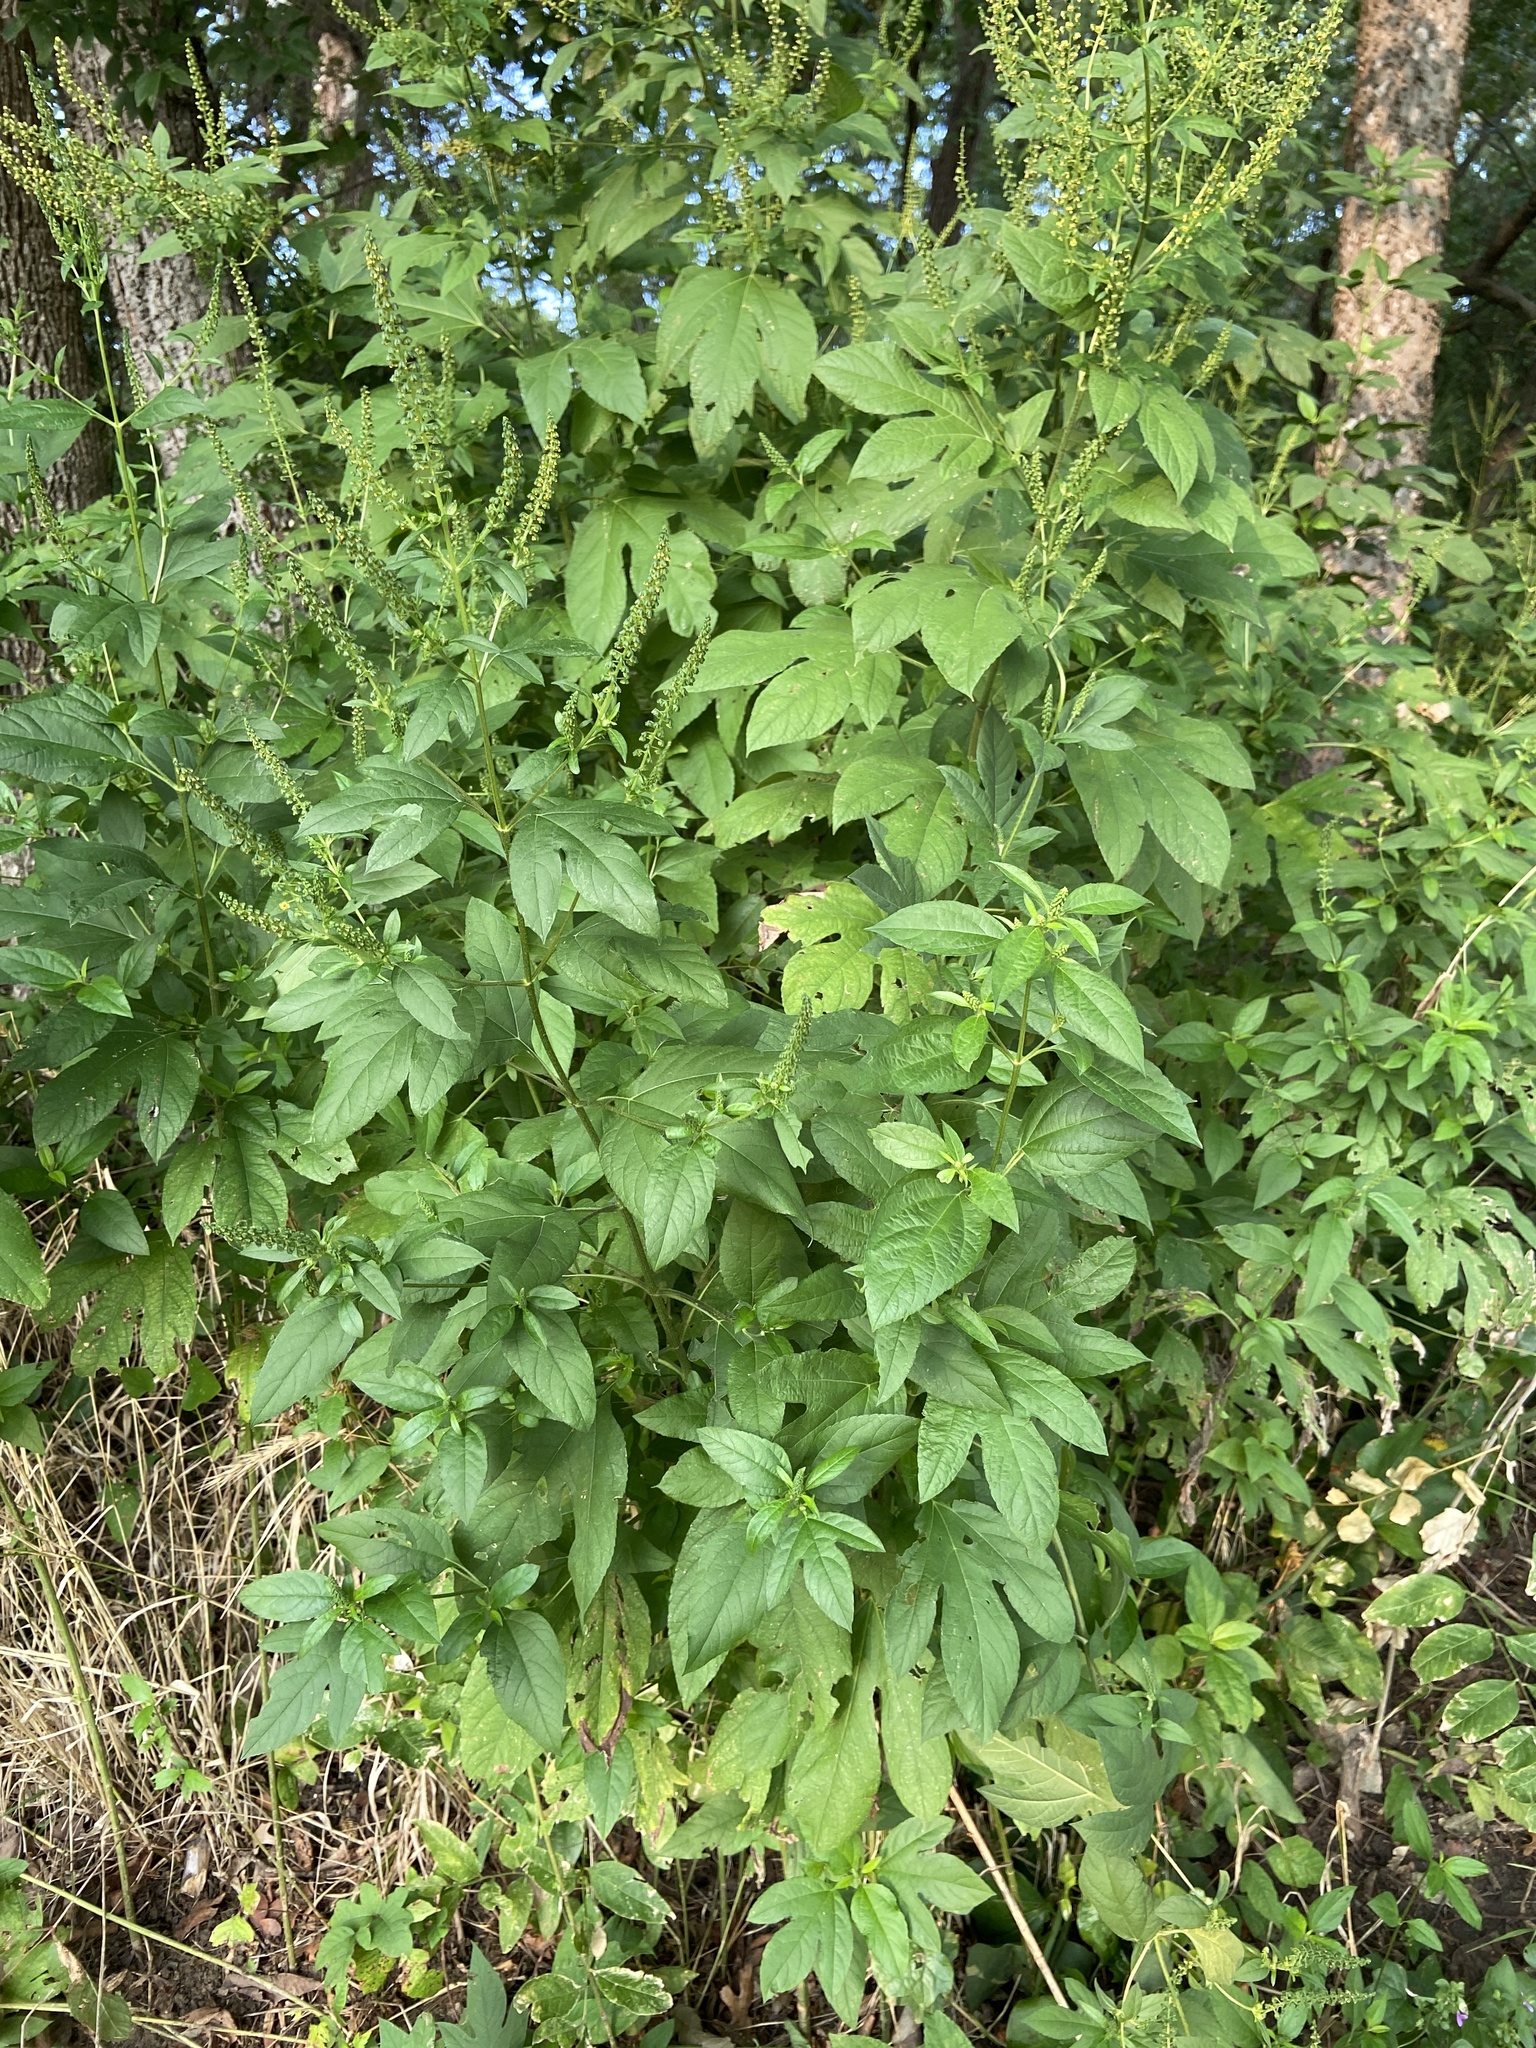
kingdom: Plantae
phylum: Tracheophyta
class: Magnoliopsida
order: Asterales
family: Asteraceae
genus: Ambrosia
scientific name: Ambrosia trifida
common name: Giant ragweed
